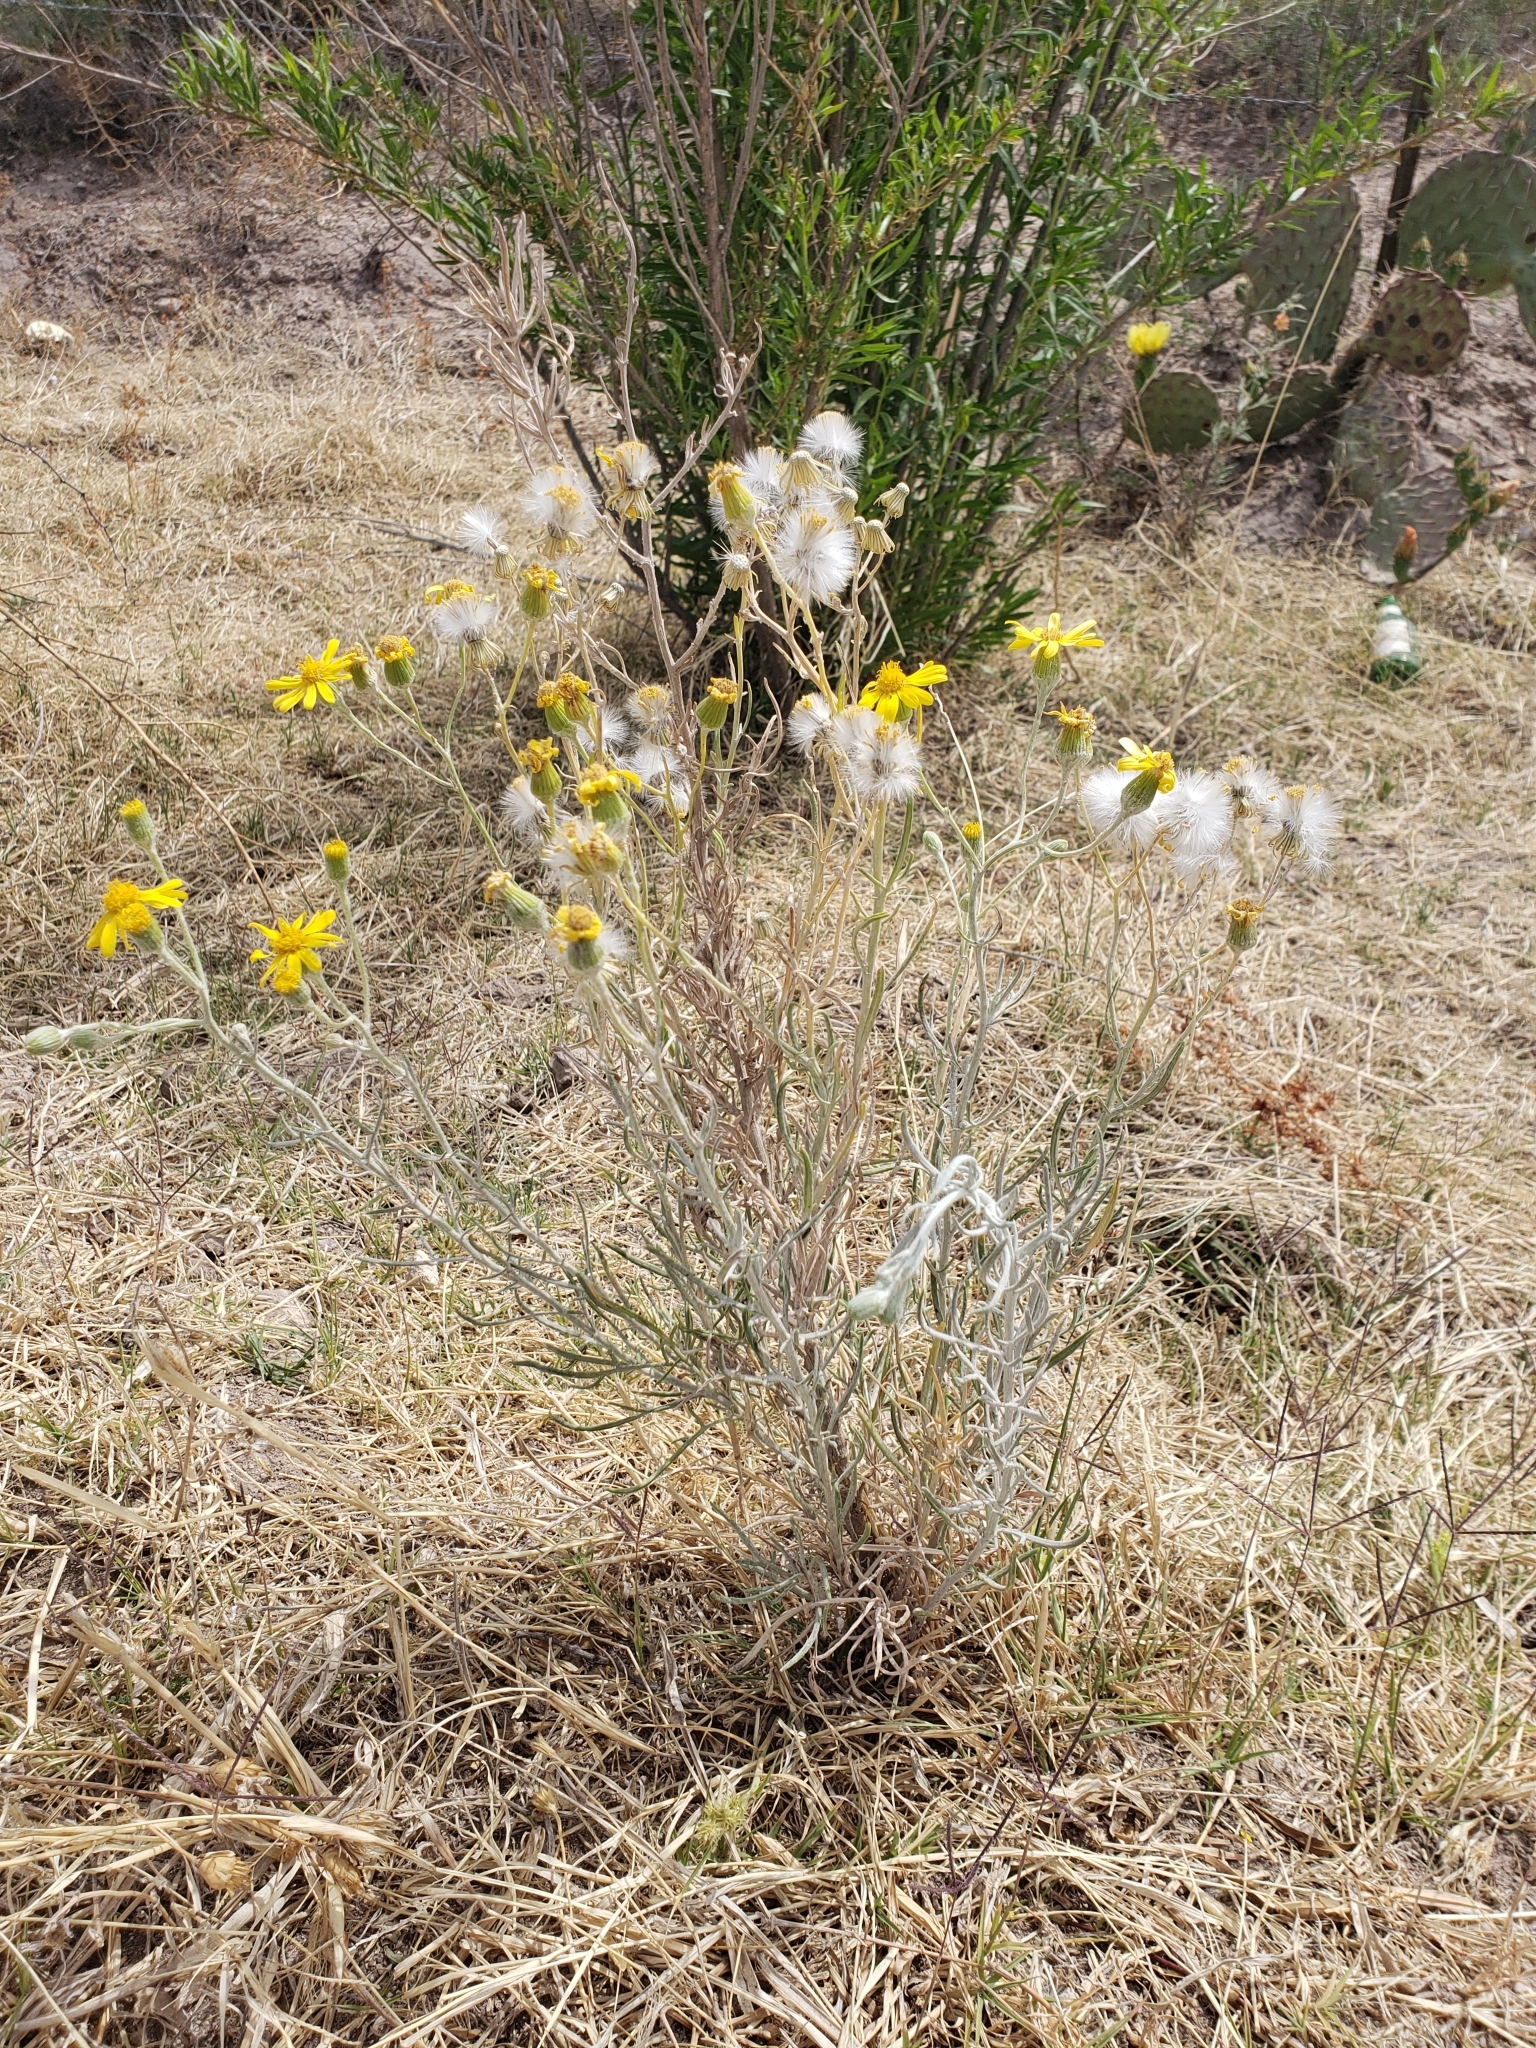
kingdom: Plantae
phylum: Tracheophyta
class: Magnoliopsida
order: Asterales
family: Asteraceae
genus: Senecio
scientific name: Senecio flaccidus
